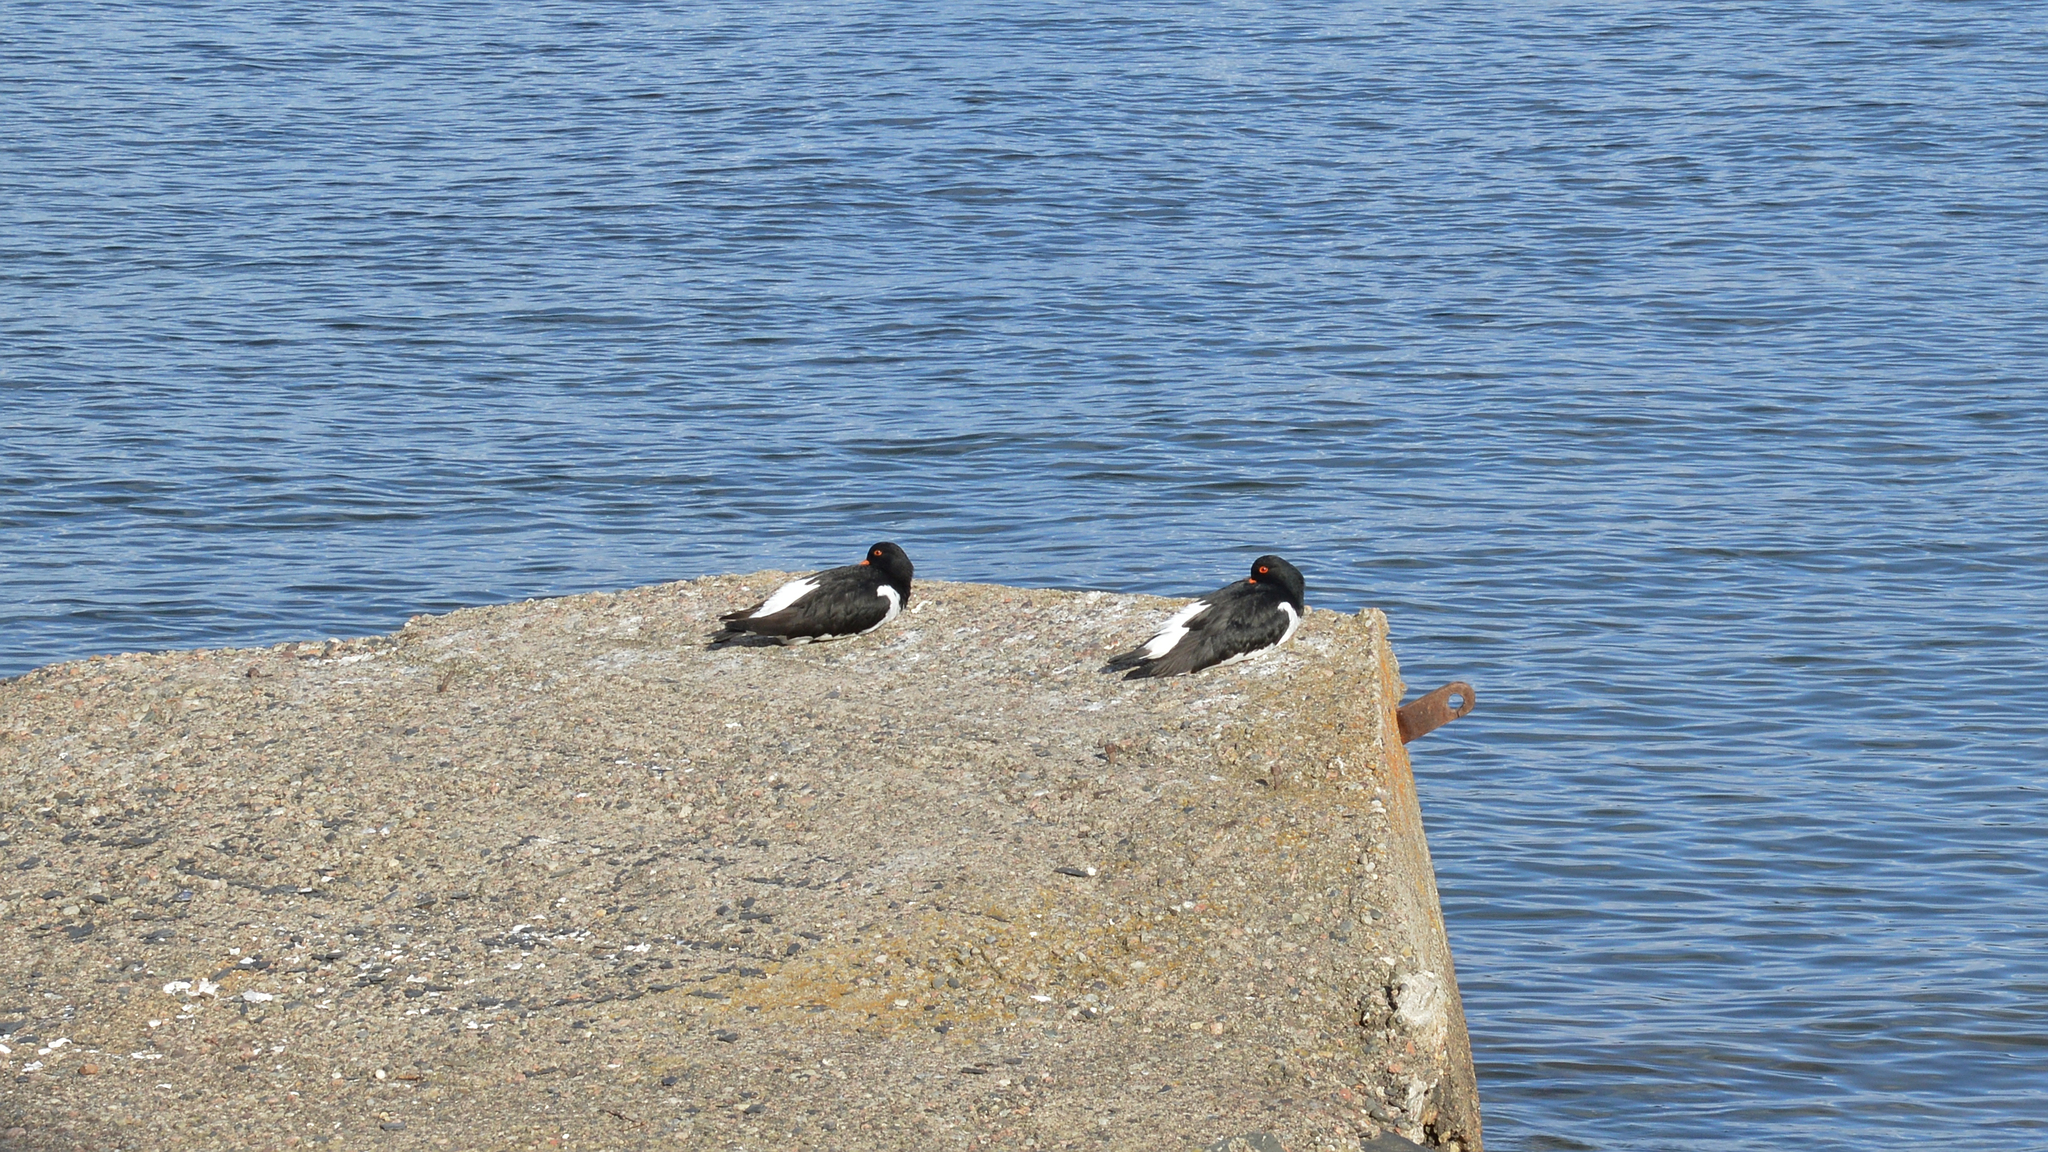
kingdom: Animalia
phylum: Chordata
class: Aves
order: Charadriiformes
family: Haematopodidae
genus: Haematopus
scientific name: Haematopus ostralegus
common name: Eurasian oystercatcher
